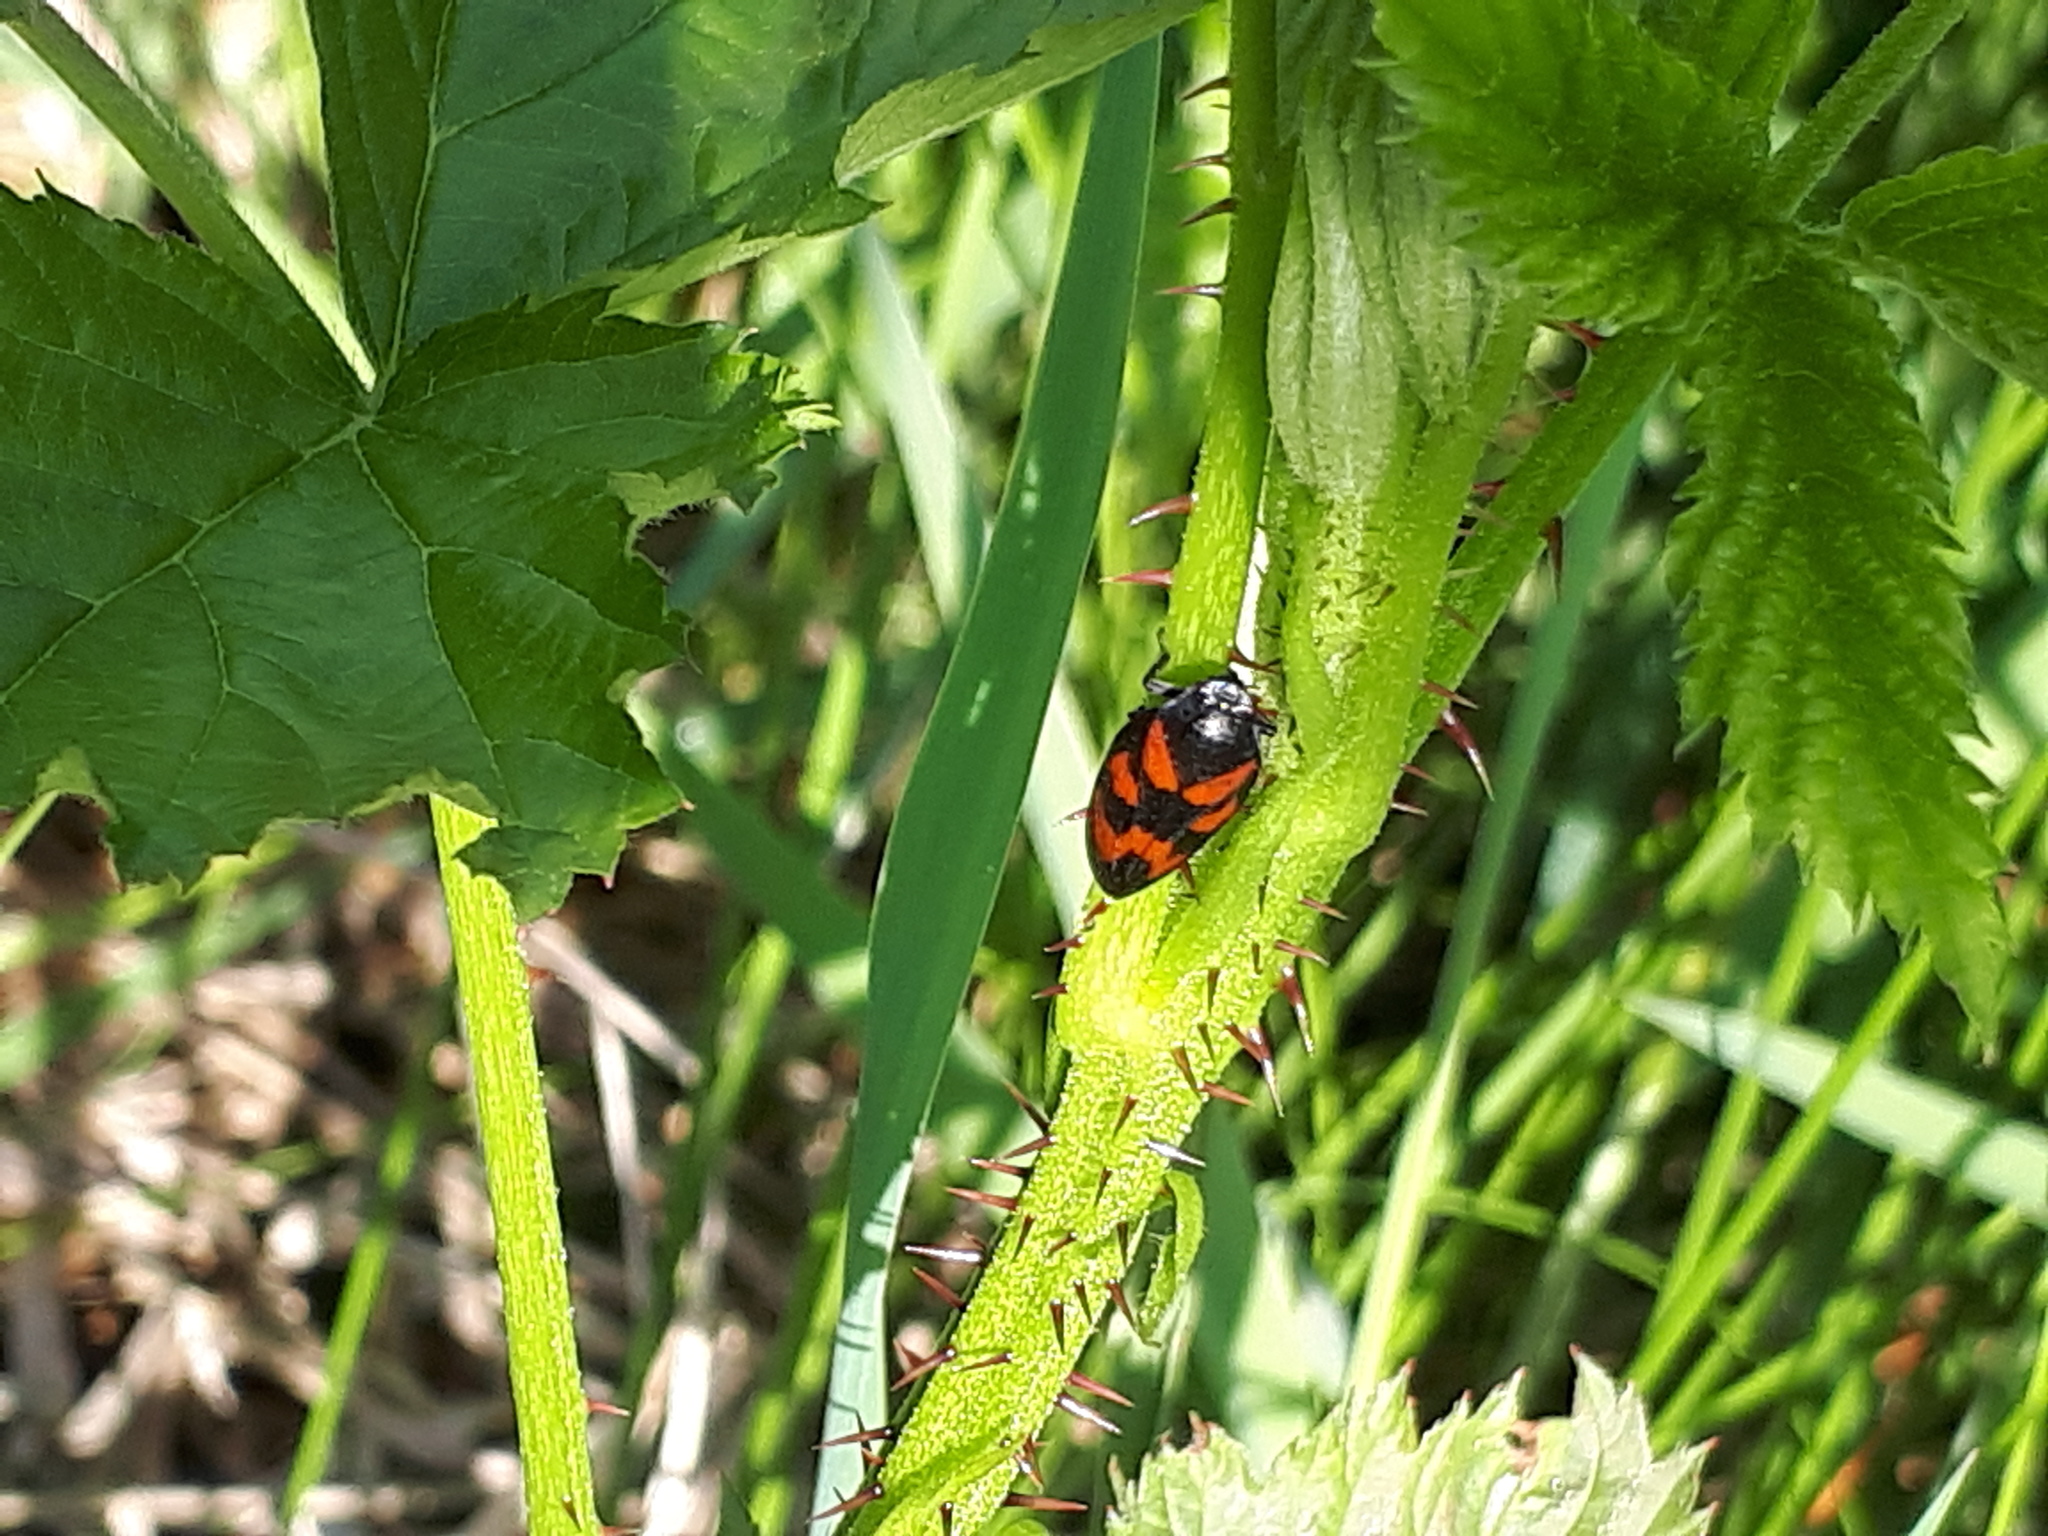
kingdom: Animalia
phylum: Arthropoda
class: Insecta
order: Hemiptera
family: Cercopidae
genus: Cercopis
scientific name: Cercopis vulnerata
